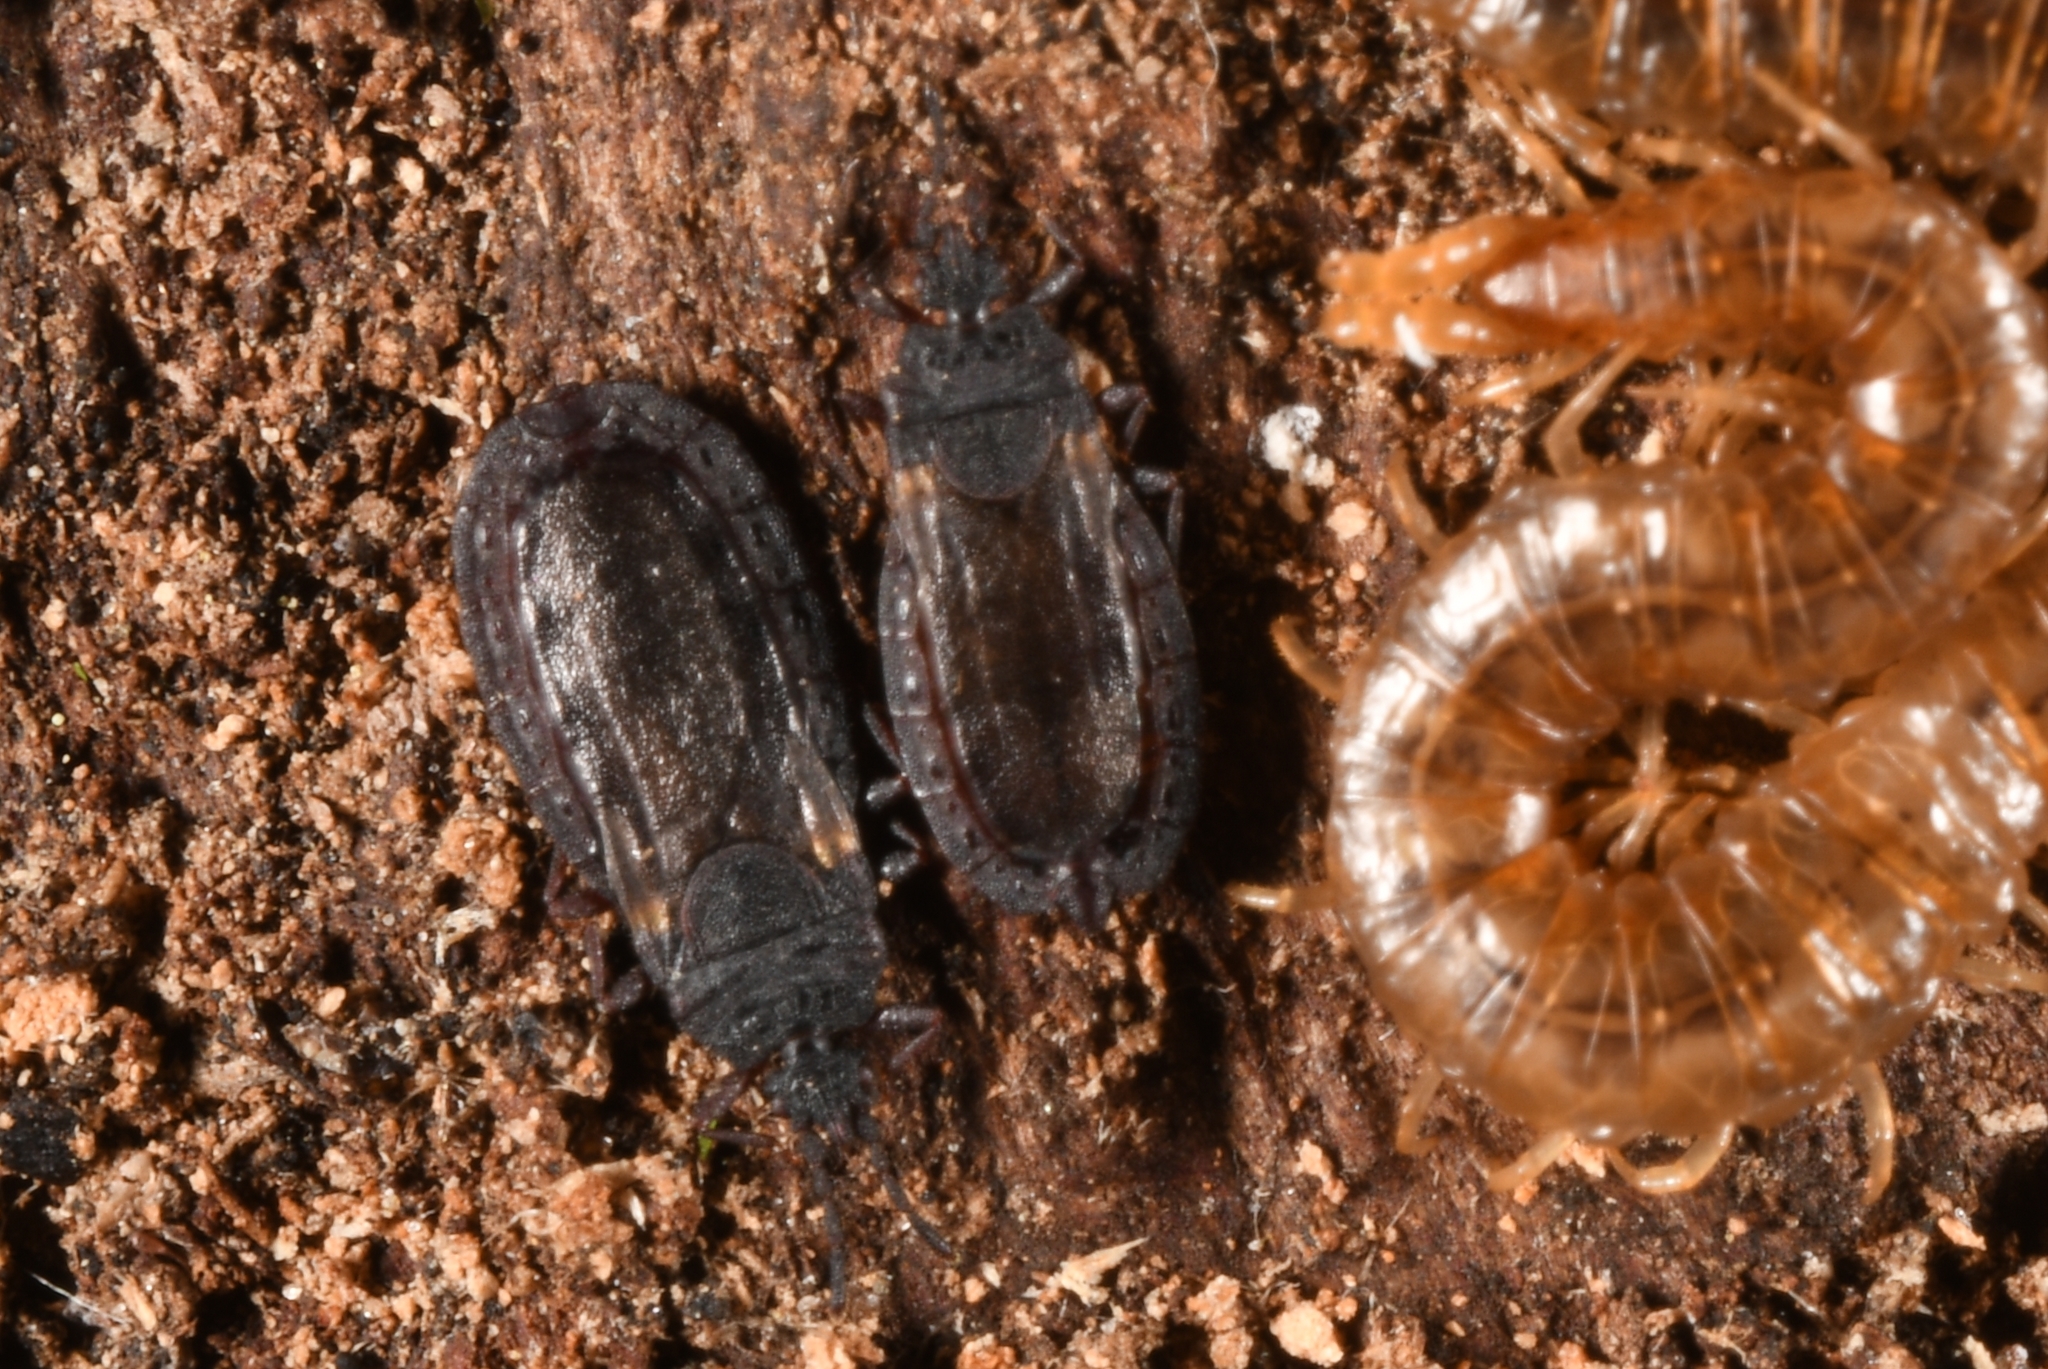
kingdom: Animalia
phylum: Arthropoda
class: Insecta
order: Hemiptera
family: Aradidae
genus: Aneurus
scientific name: Aneurus avenius
